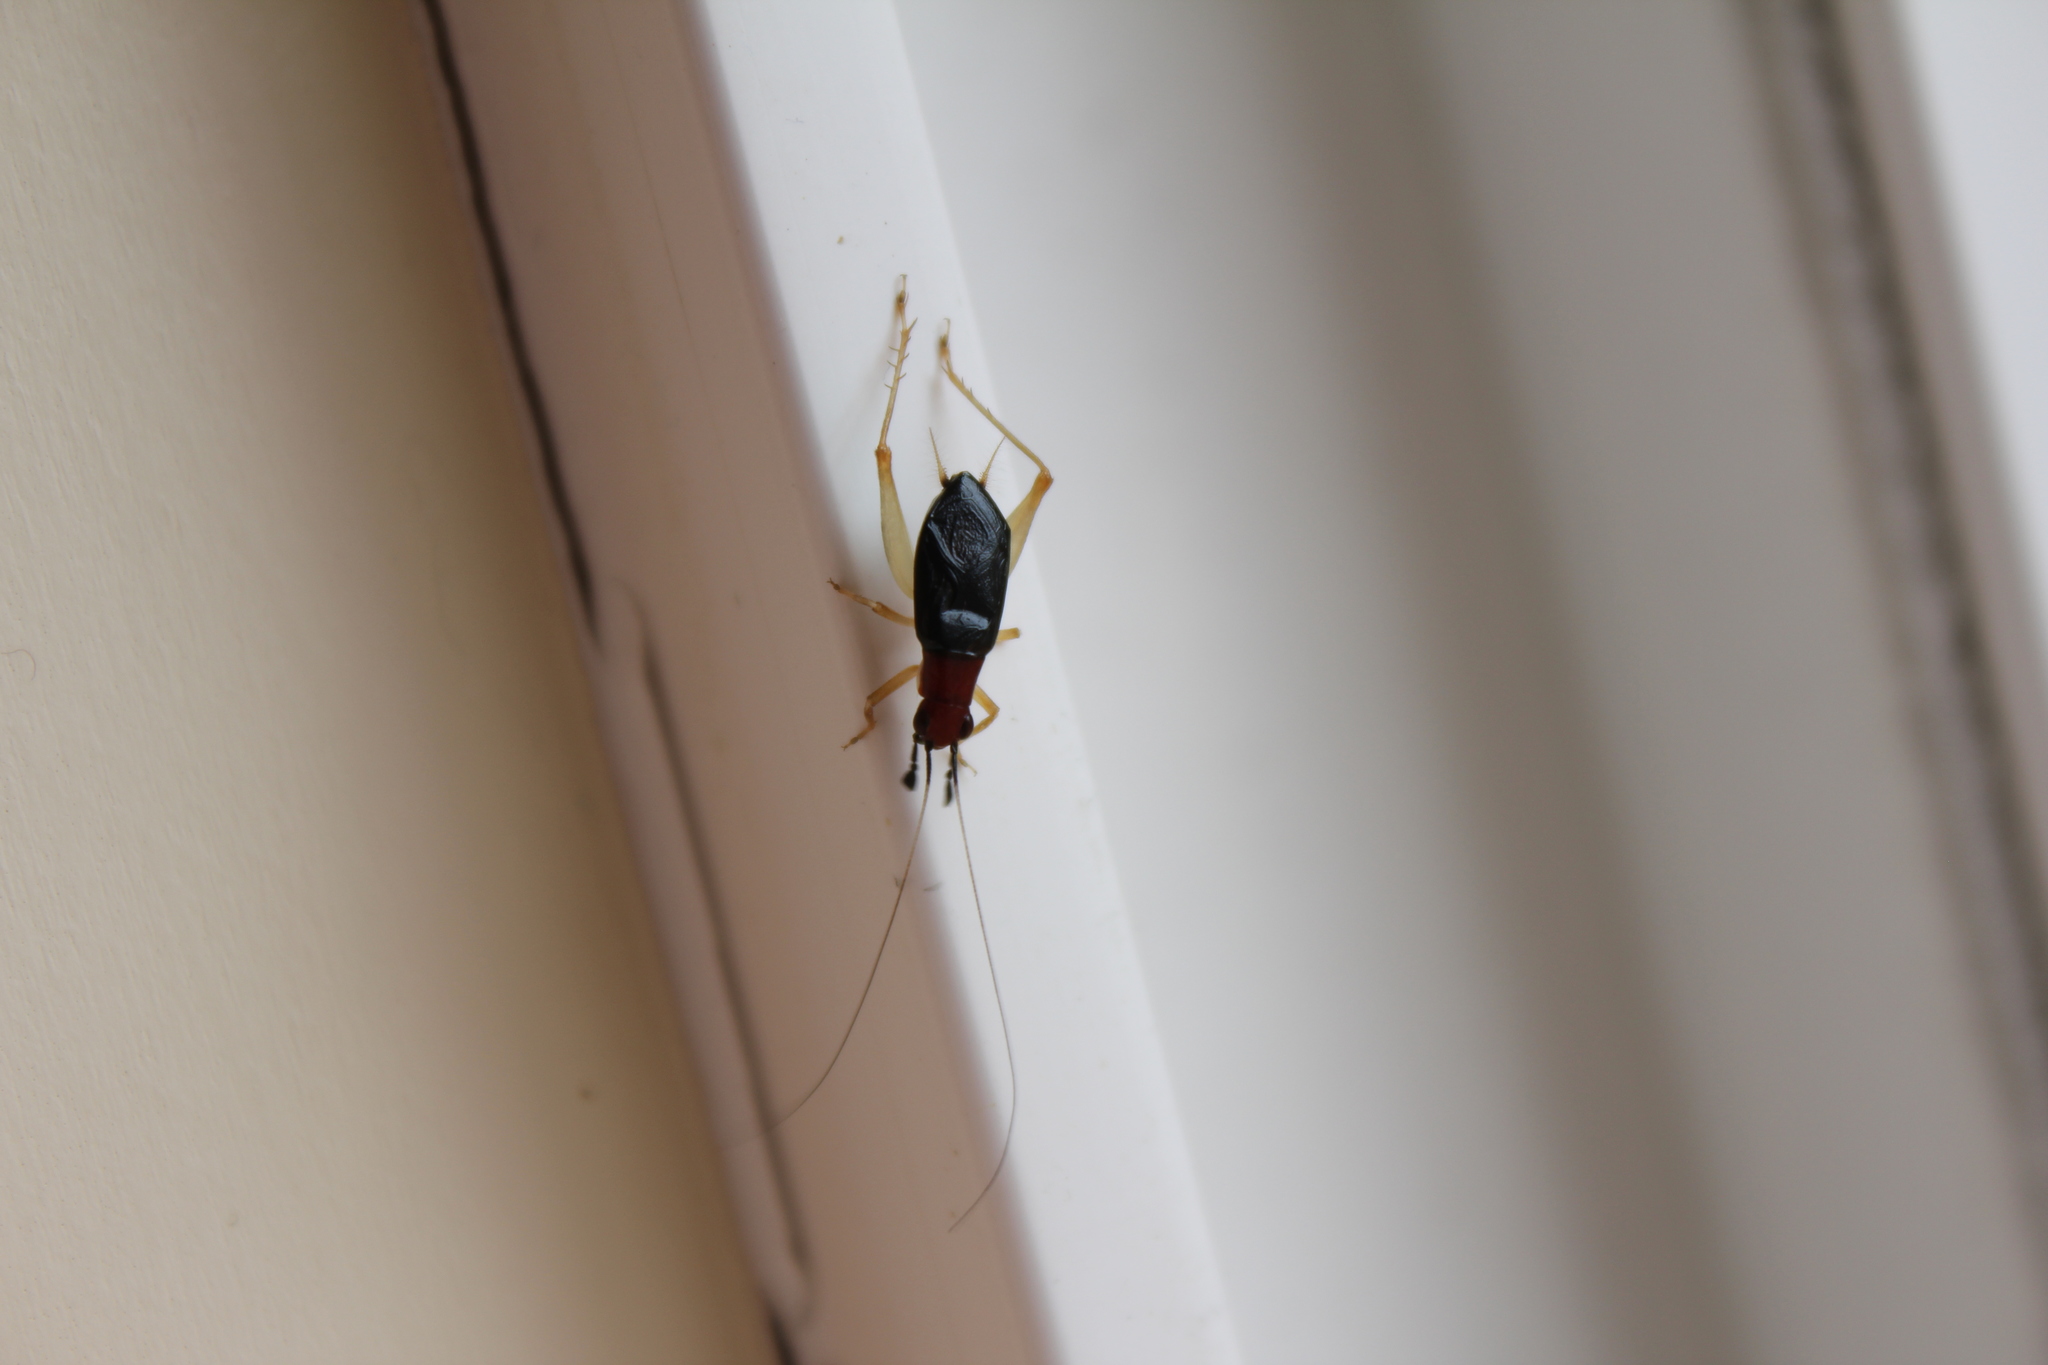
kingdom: Animalia
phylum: Arthropoda
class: Insecta
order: Orthoptera
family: Trigonidiidae
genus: Phyllopalpus
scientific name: Phyllopalpus pulchellus
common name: Handsome trig
